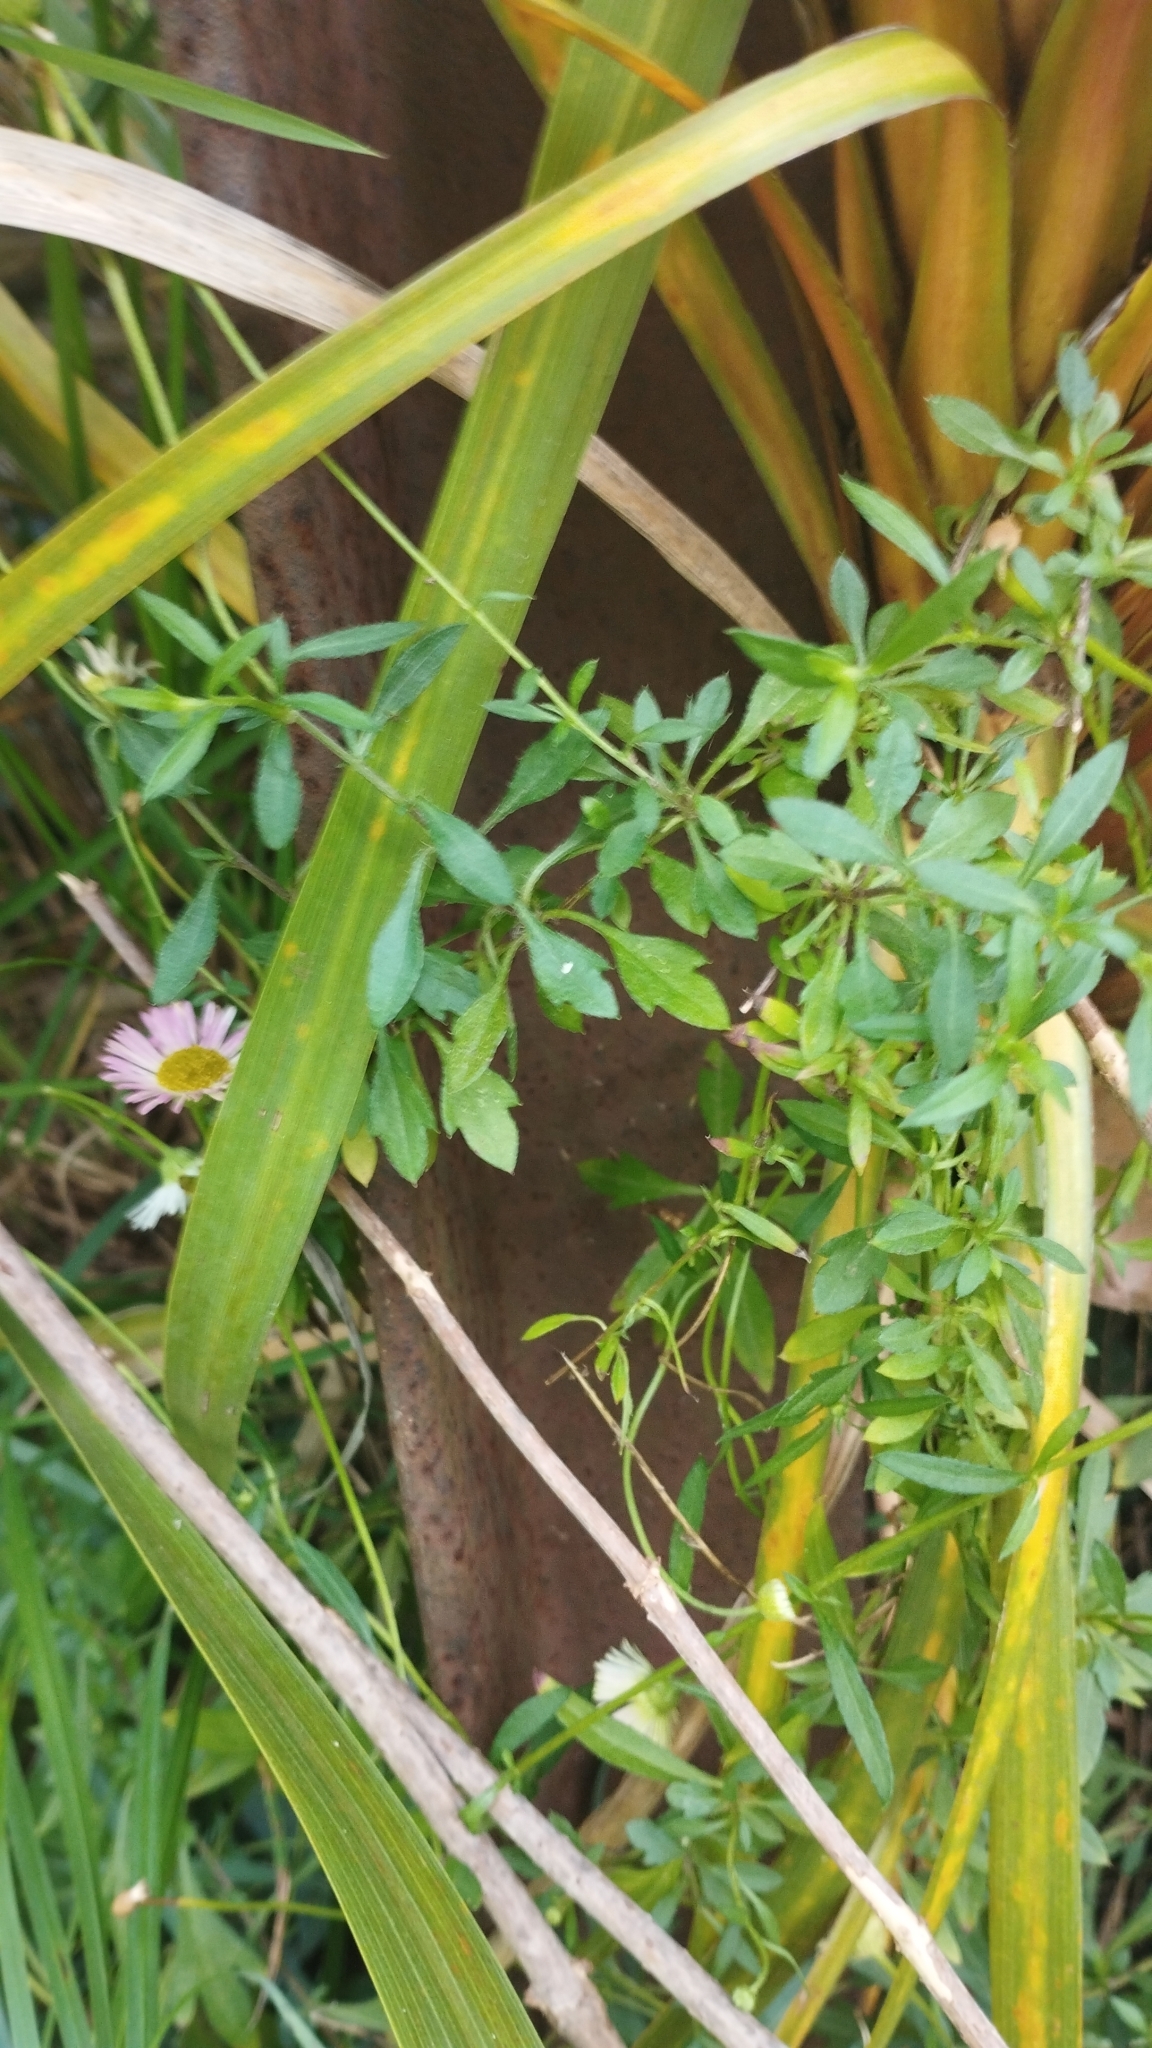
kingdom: Plantae
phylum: Tracheophyta
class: Magnoliopsida
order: Asterales
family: Asteraceae
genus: Erigeron
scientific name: Erigeron karvinskianus
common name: Mexican fleabane
